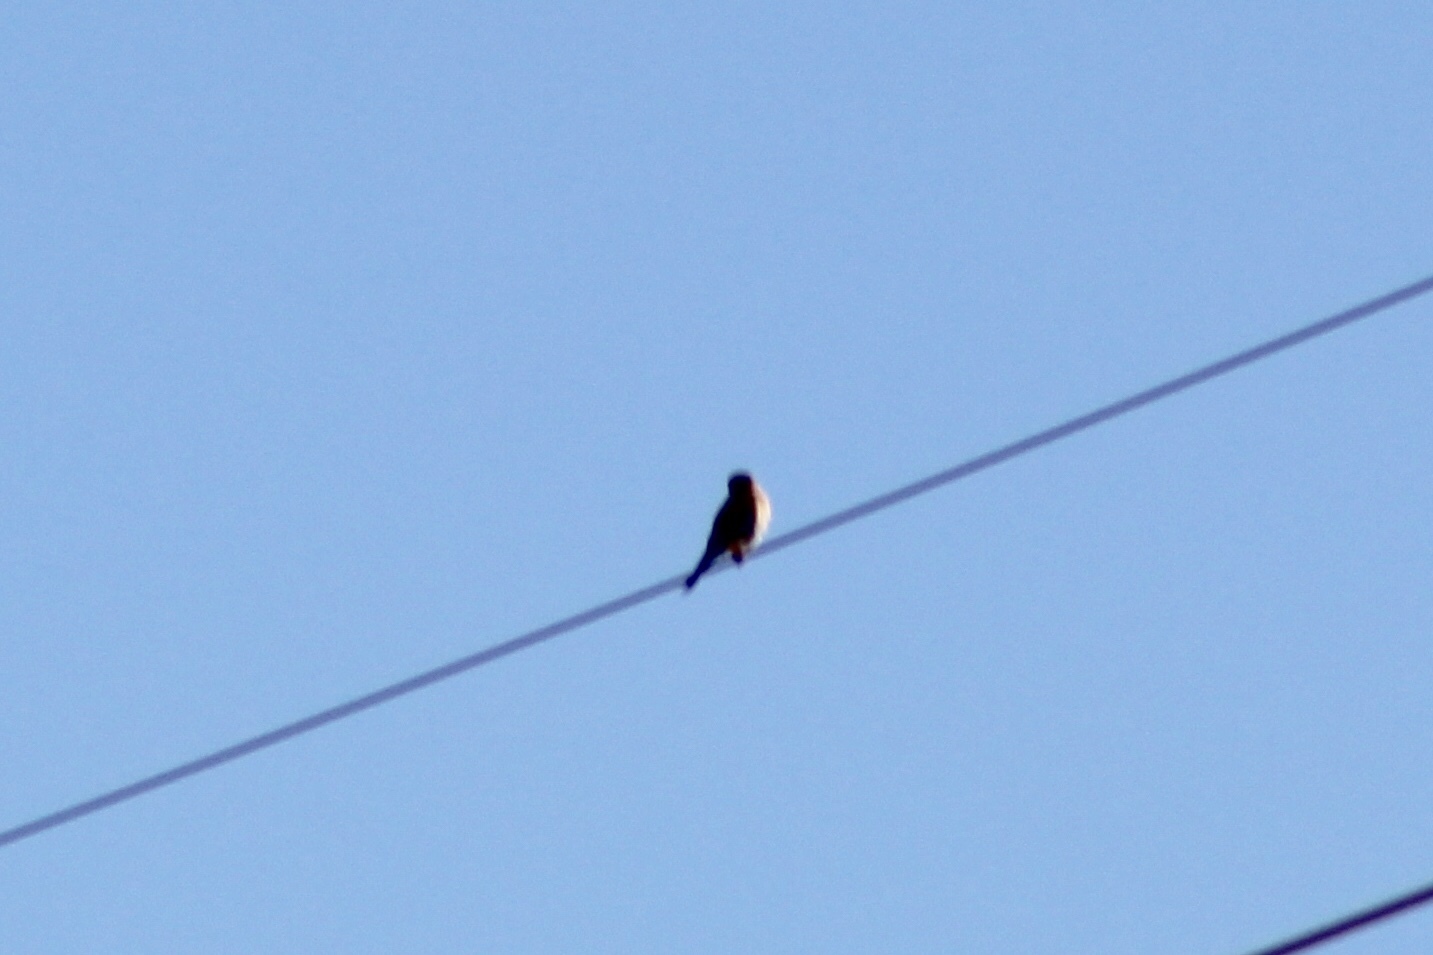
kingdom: Animalia
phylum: Chordata
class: Aves
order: Falconiformes
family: Falconidae
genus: Falco
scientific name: Falco sparverius
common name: American kestrel
